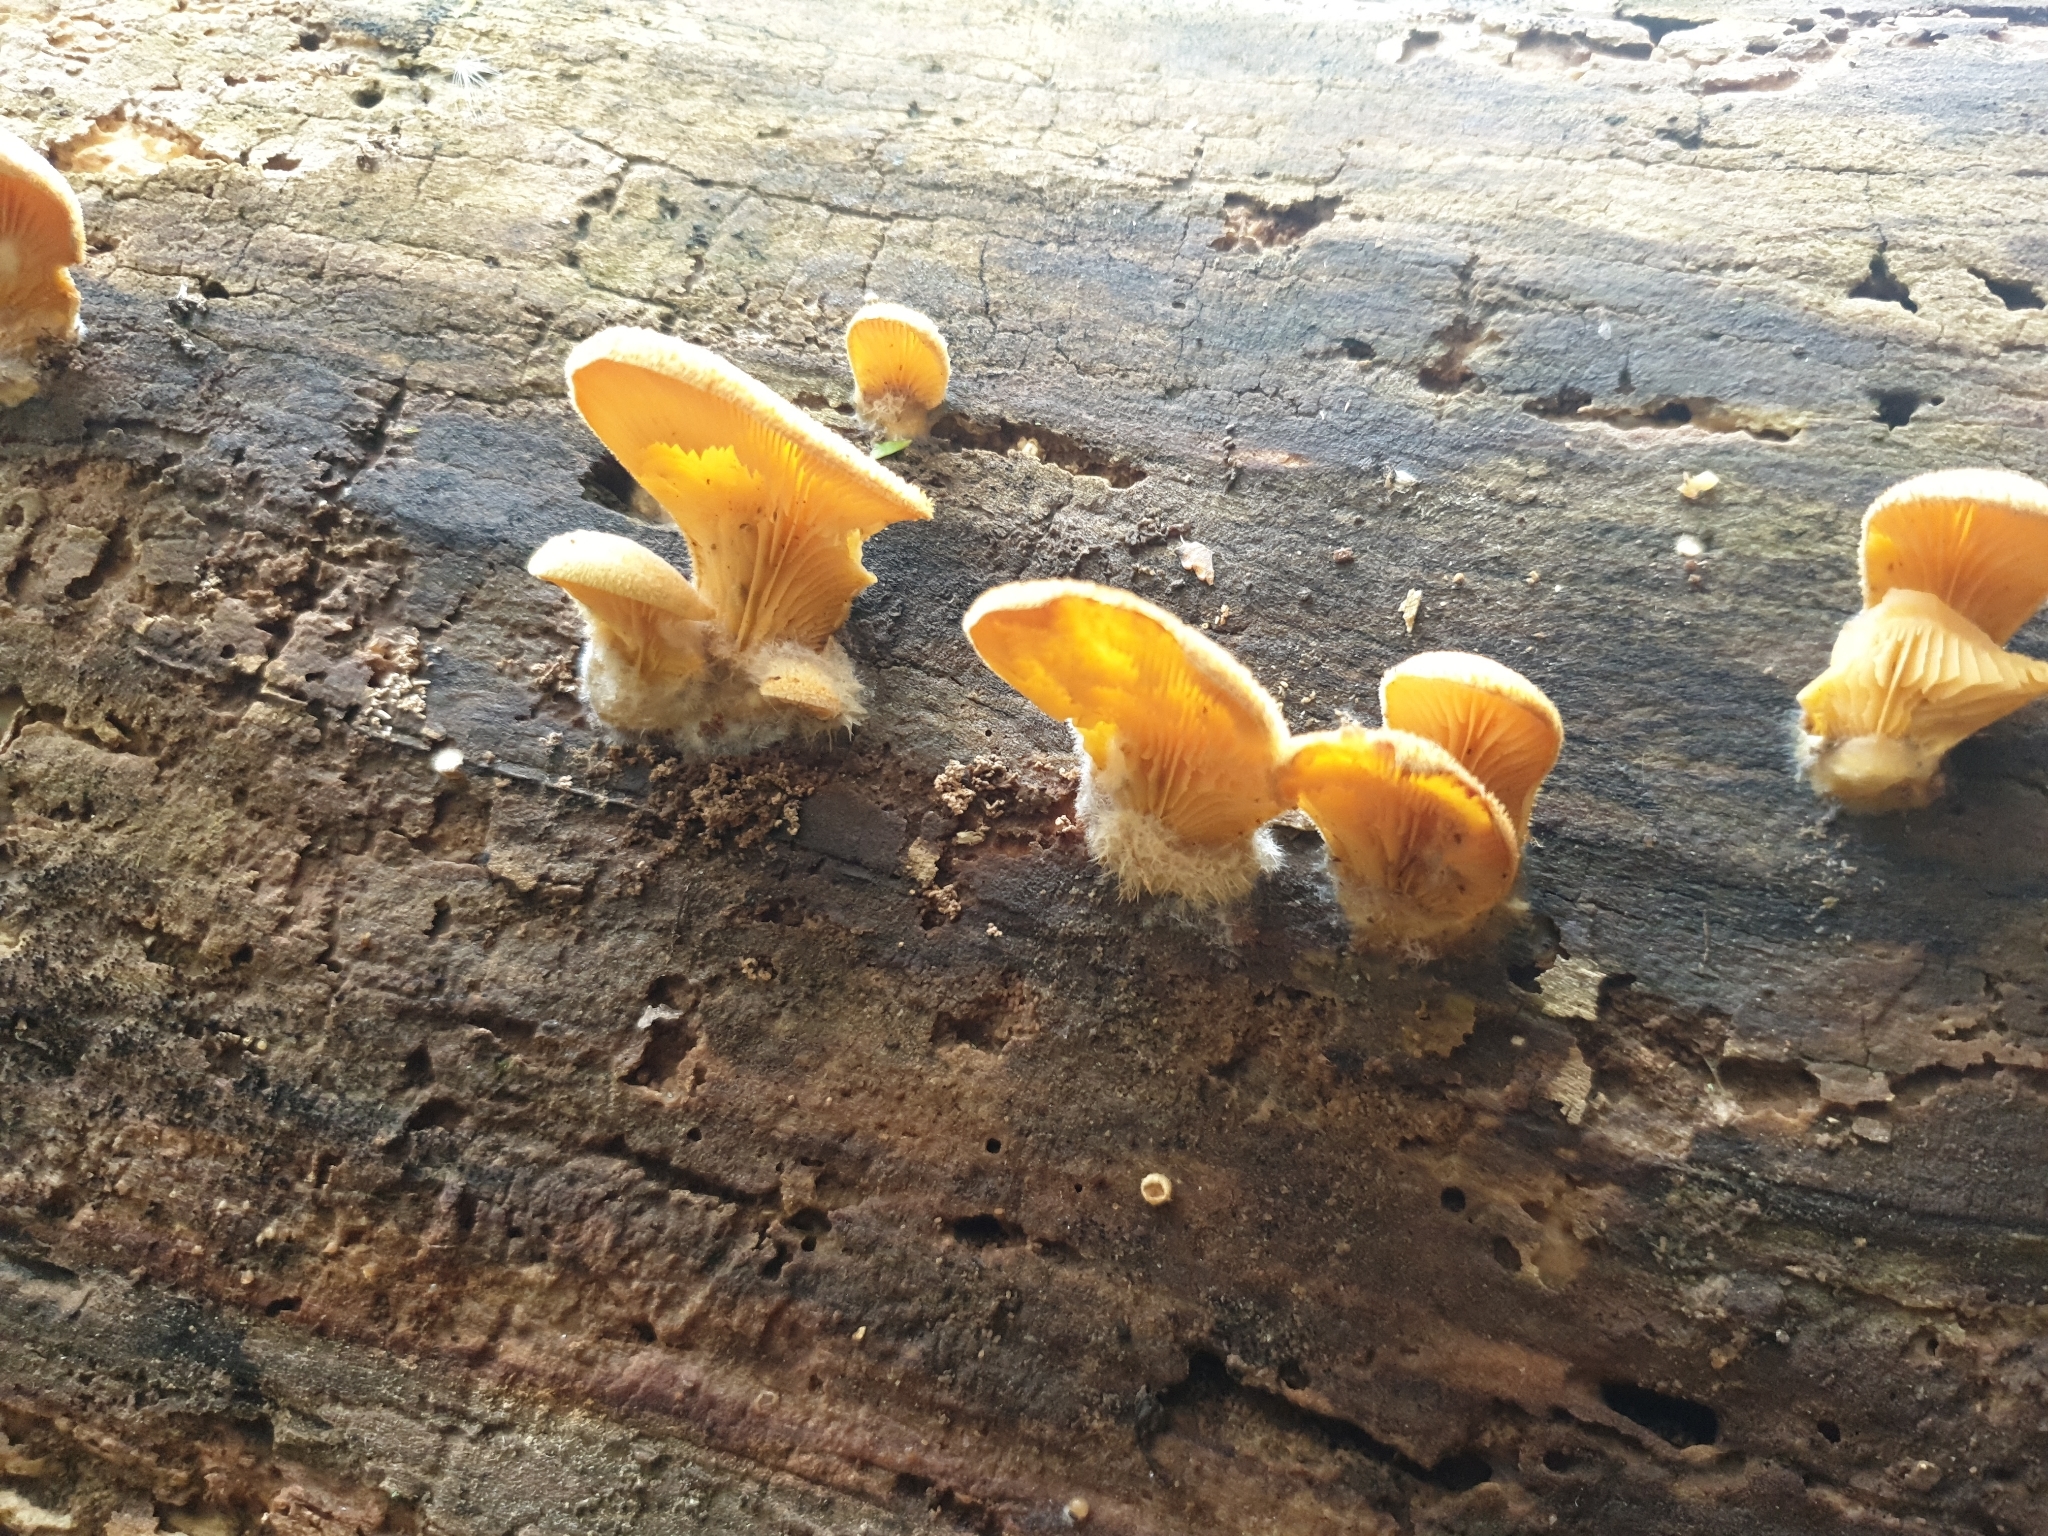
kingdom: Fungi
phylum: Basidiomycota
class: Agaricomycetes
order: Agaricales
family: Phyllotopsidaceae
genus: Phyllotopsis
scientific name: Phyllotopsis nidulans
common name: Orange mock oyster
